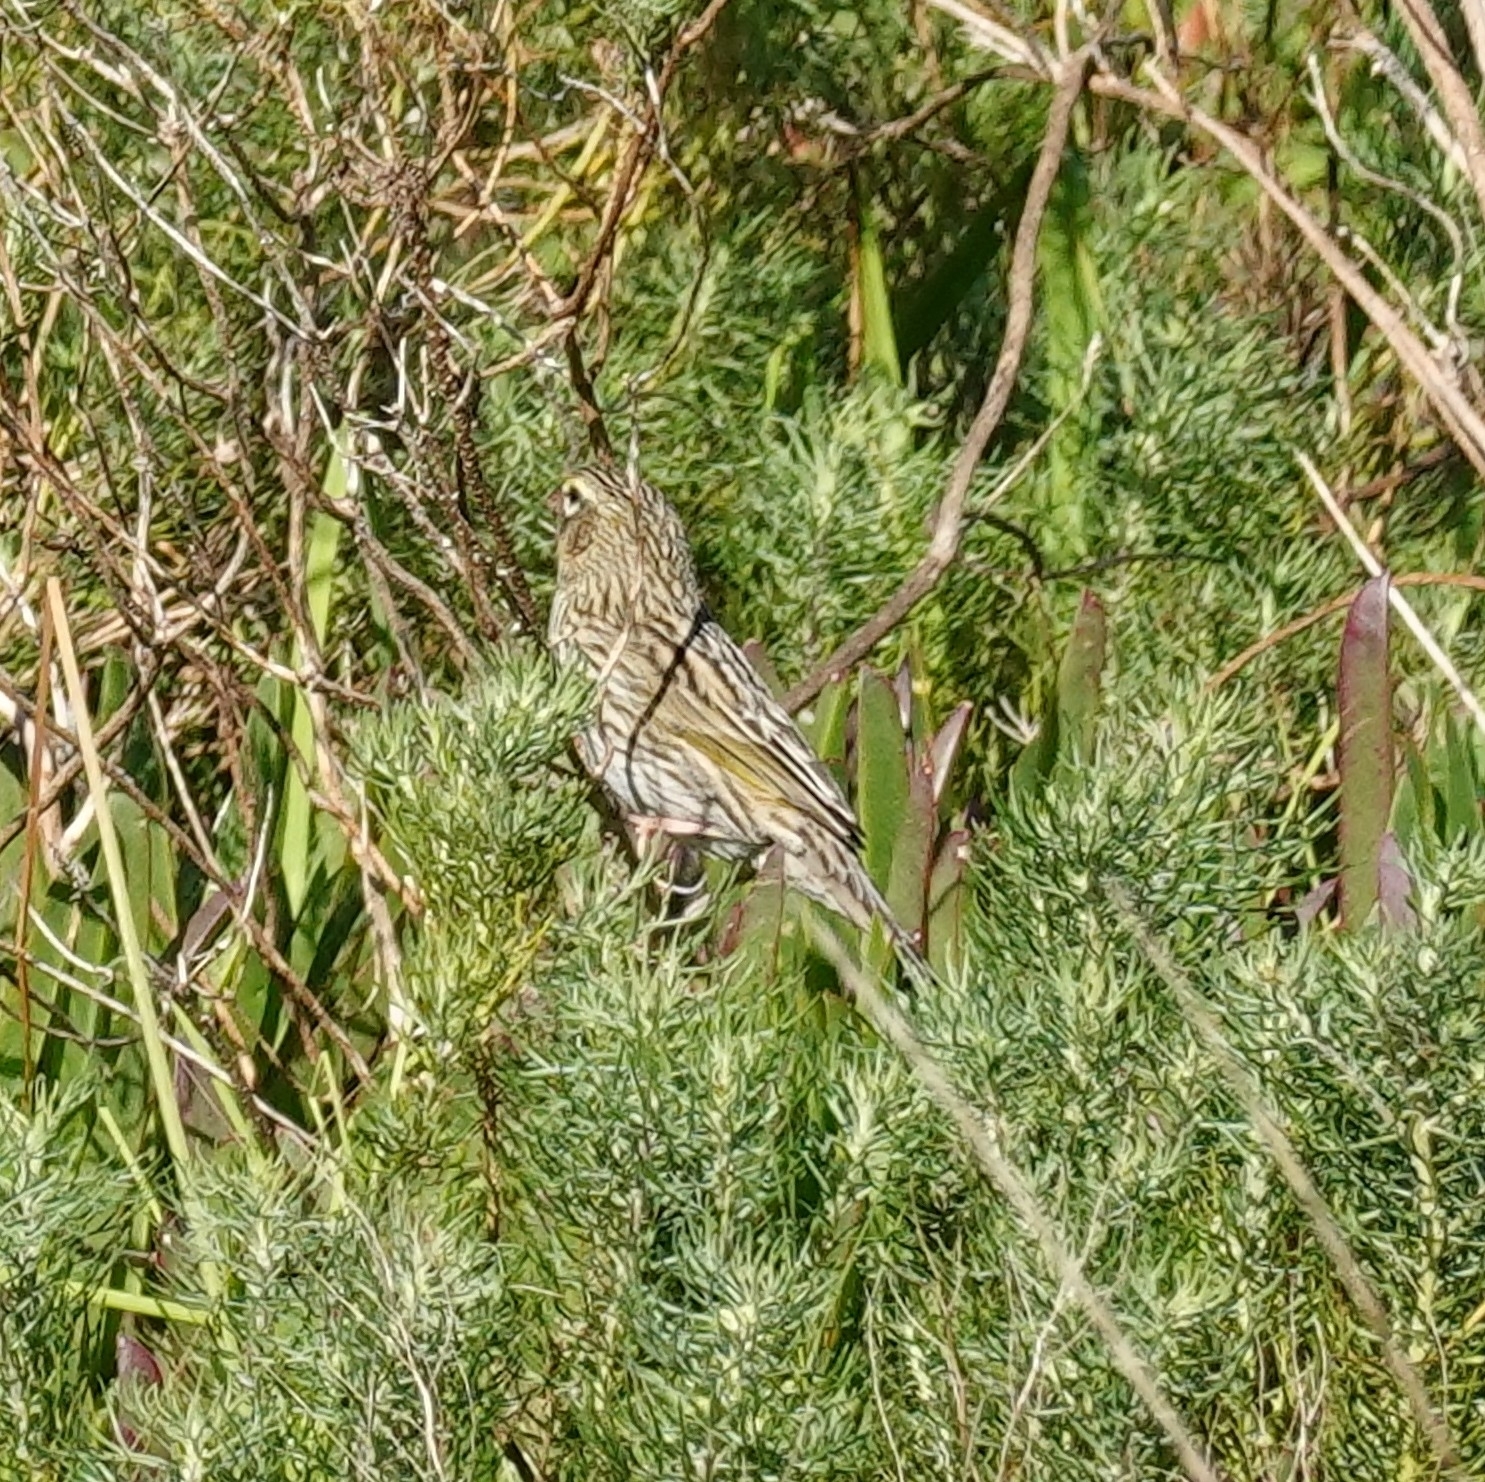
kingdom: Animalia
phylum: Chordata
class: Aves
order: Passeriformes
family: Ploceidae
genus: Euplectes
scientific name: Euplectes capensis
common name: Yellow bishop
